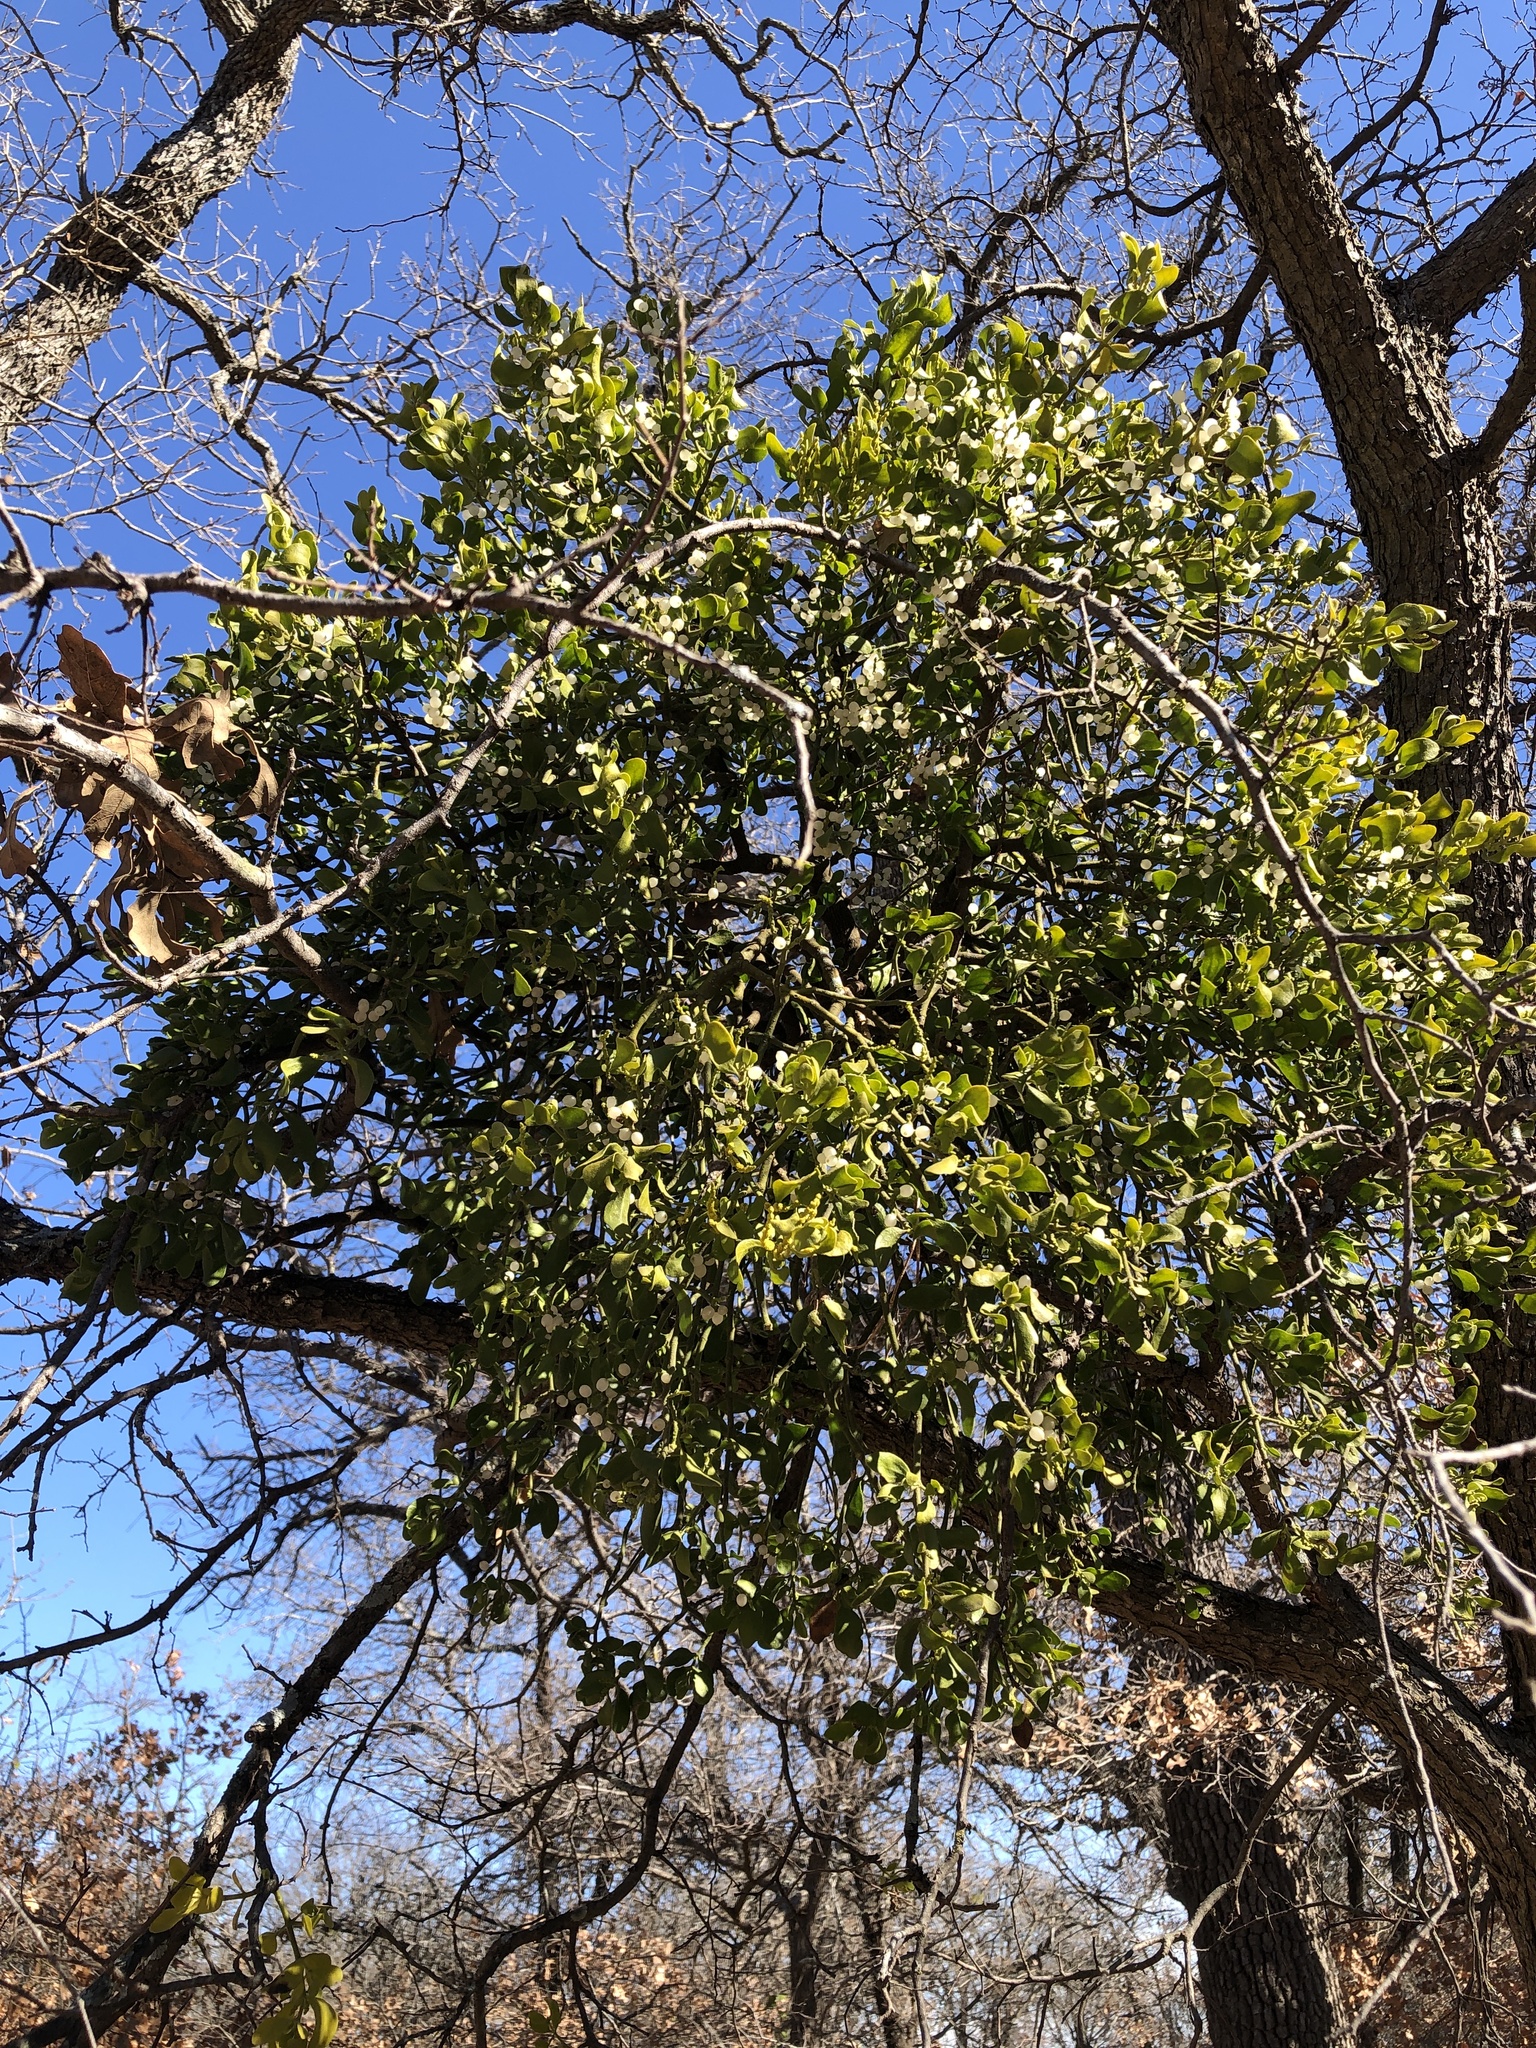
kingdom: Plantae
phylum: Tracheophyta
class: Magnoliopsida
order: Santalales
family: Viscaceae
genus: Phoradendron
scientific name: Phoradendron leucarpum
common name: Pacific mistletoe
